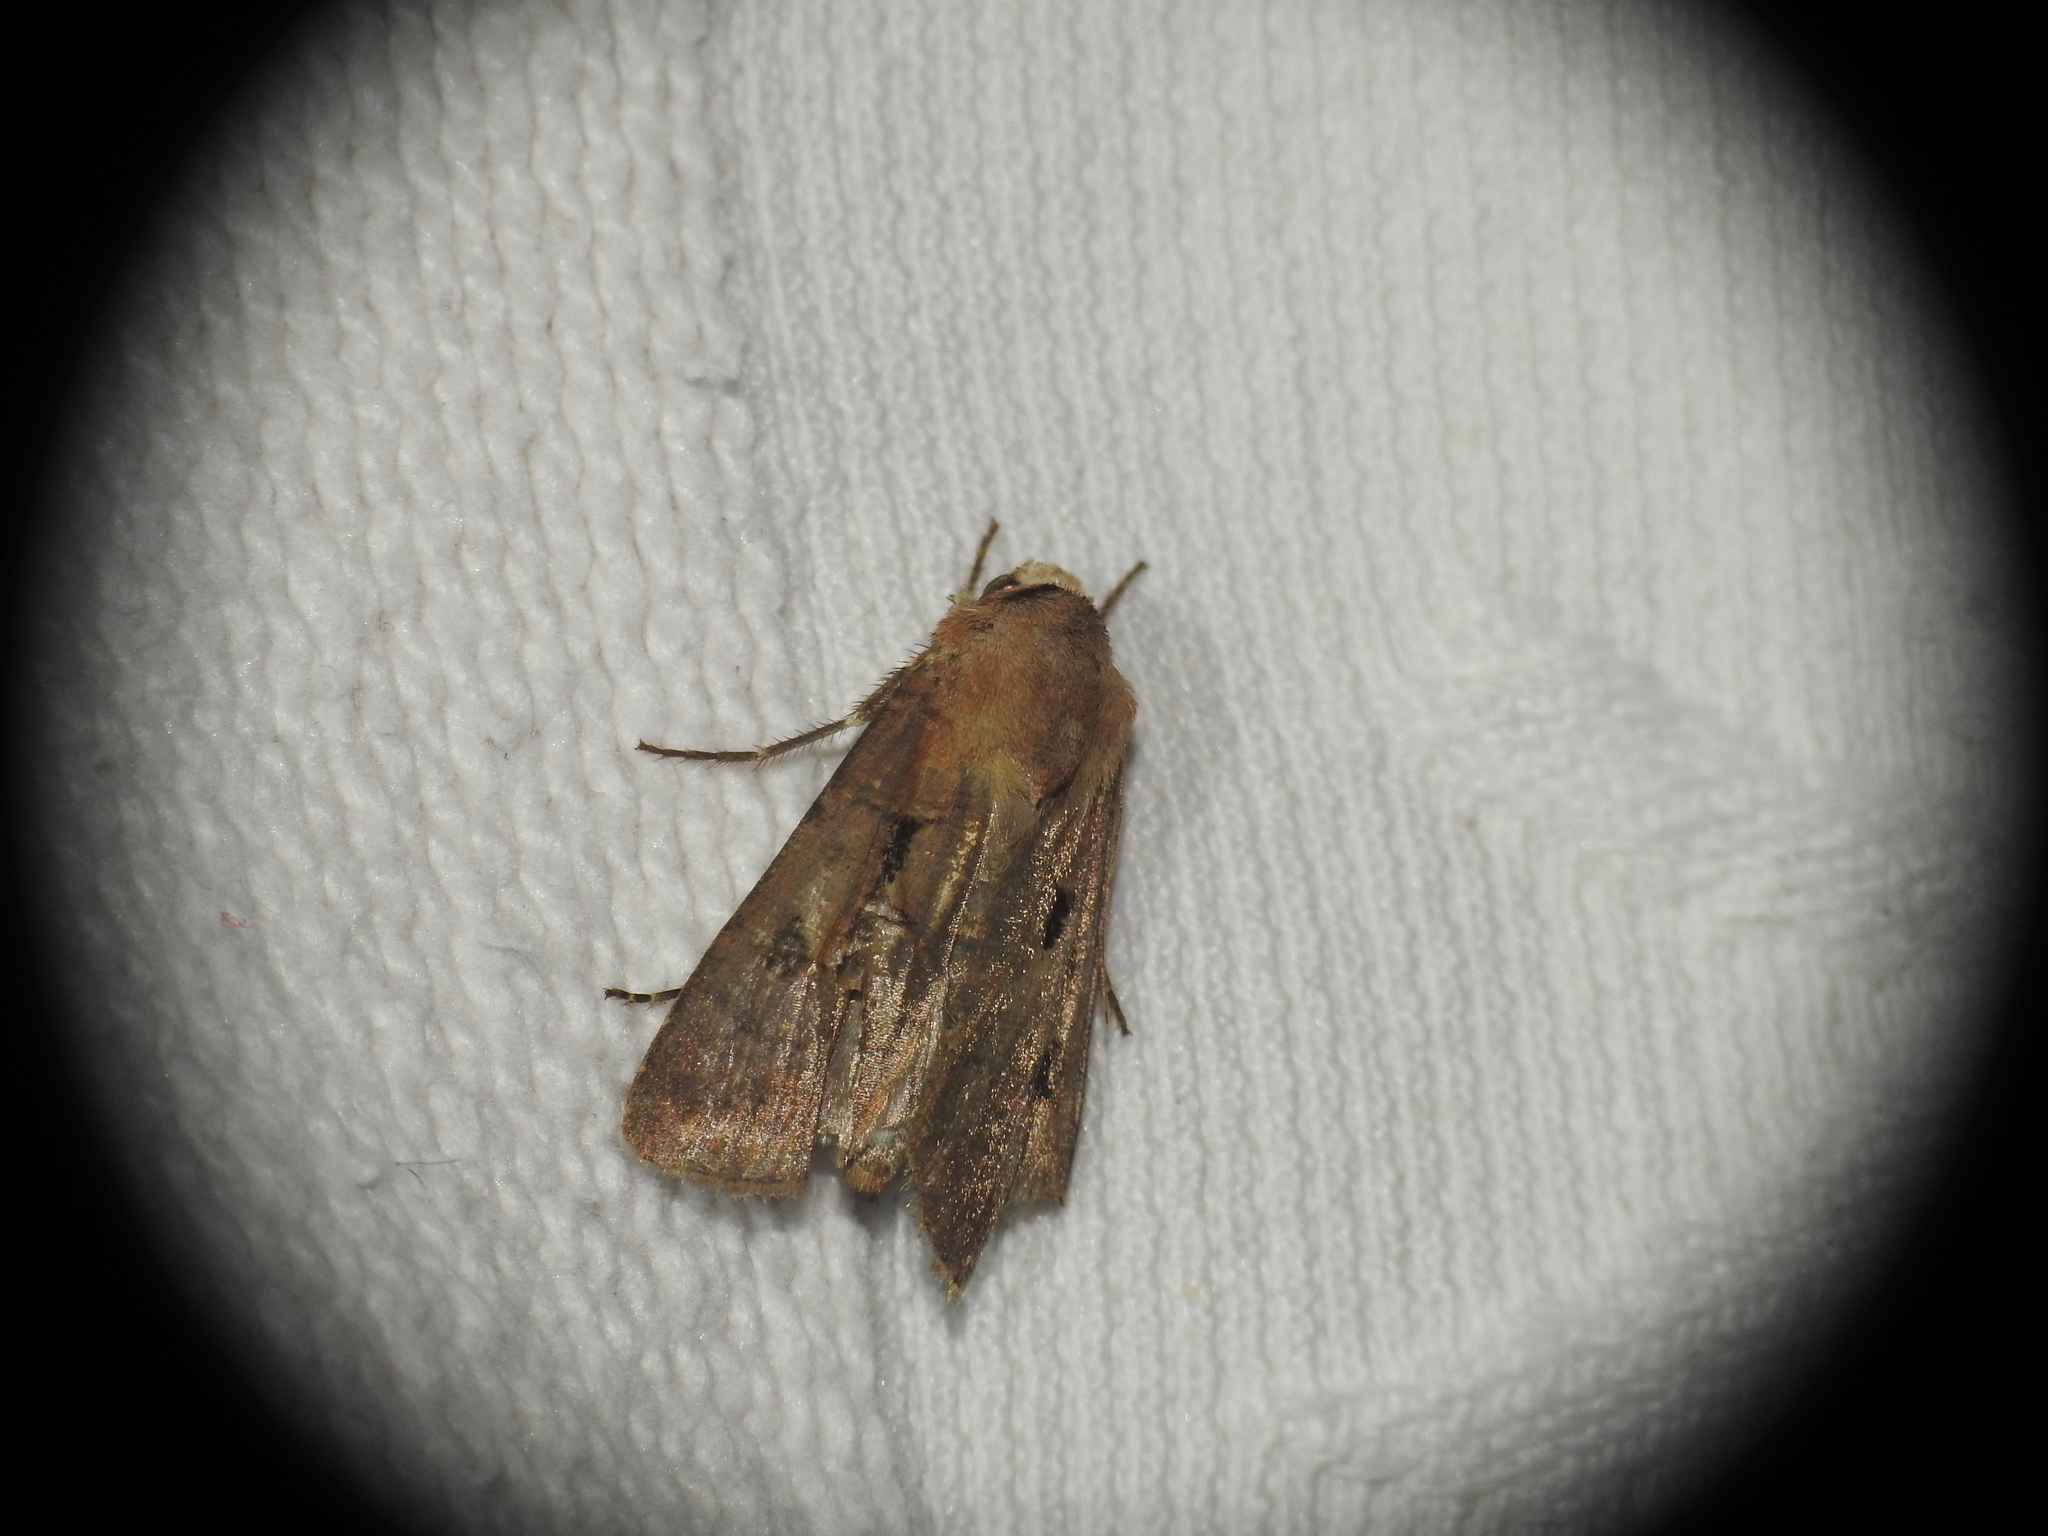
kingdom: Animalia
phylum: Arthropoda
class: Insecta
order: Lepidoptera
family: Noctuidae
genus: Agrotis
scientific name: Agrotis exclamationis
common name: Heart and dart
